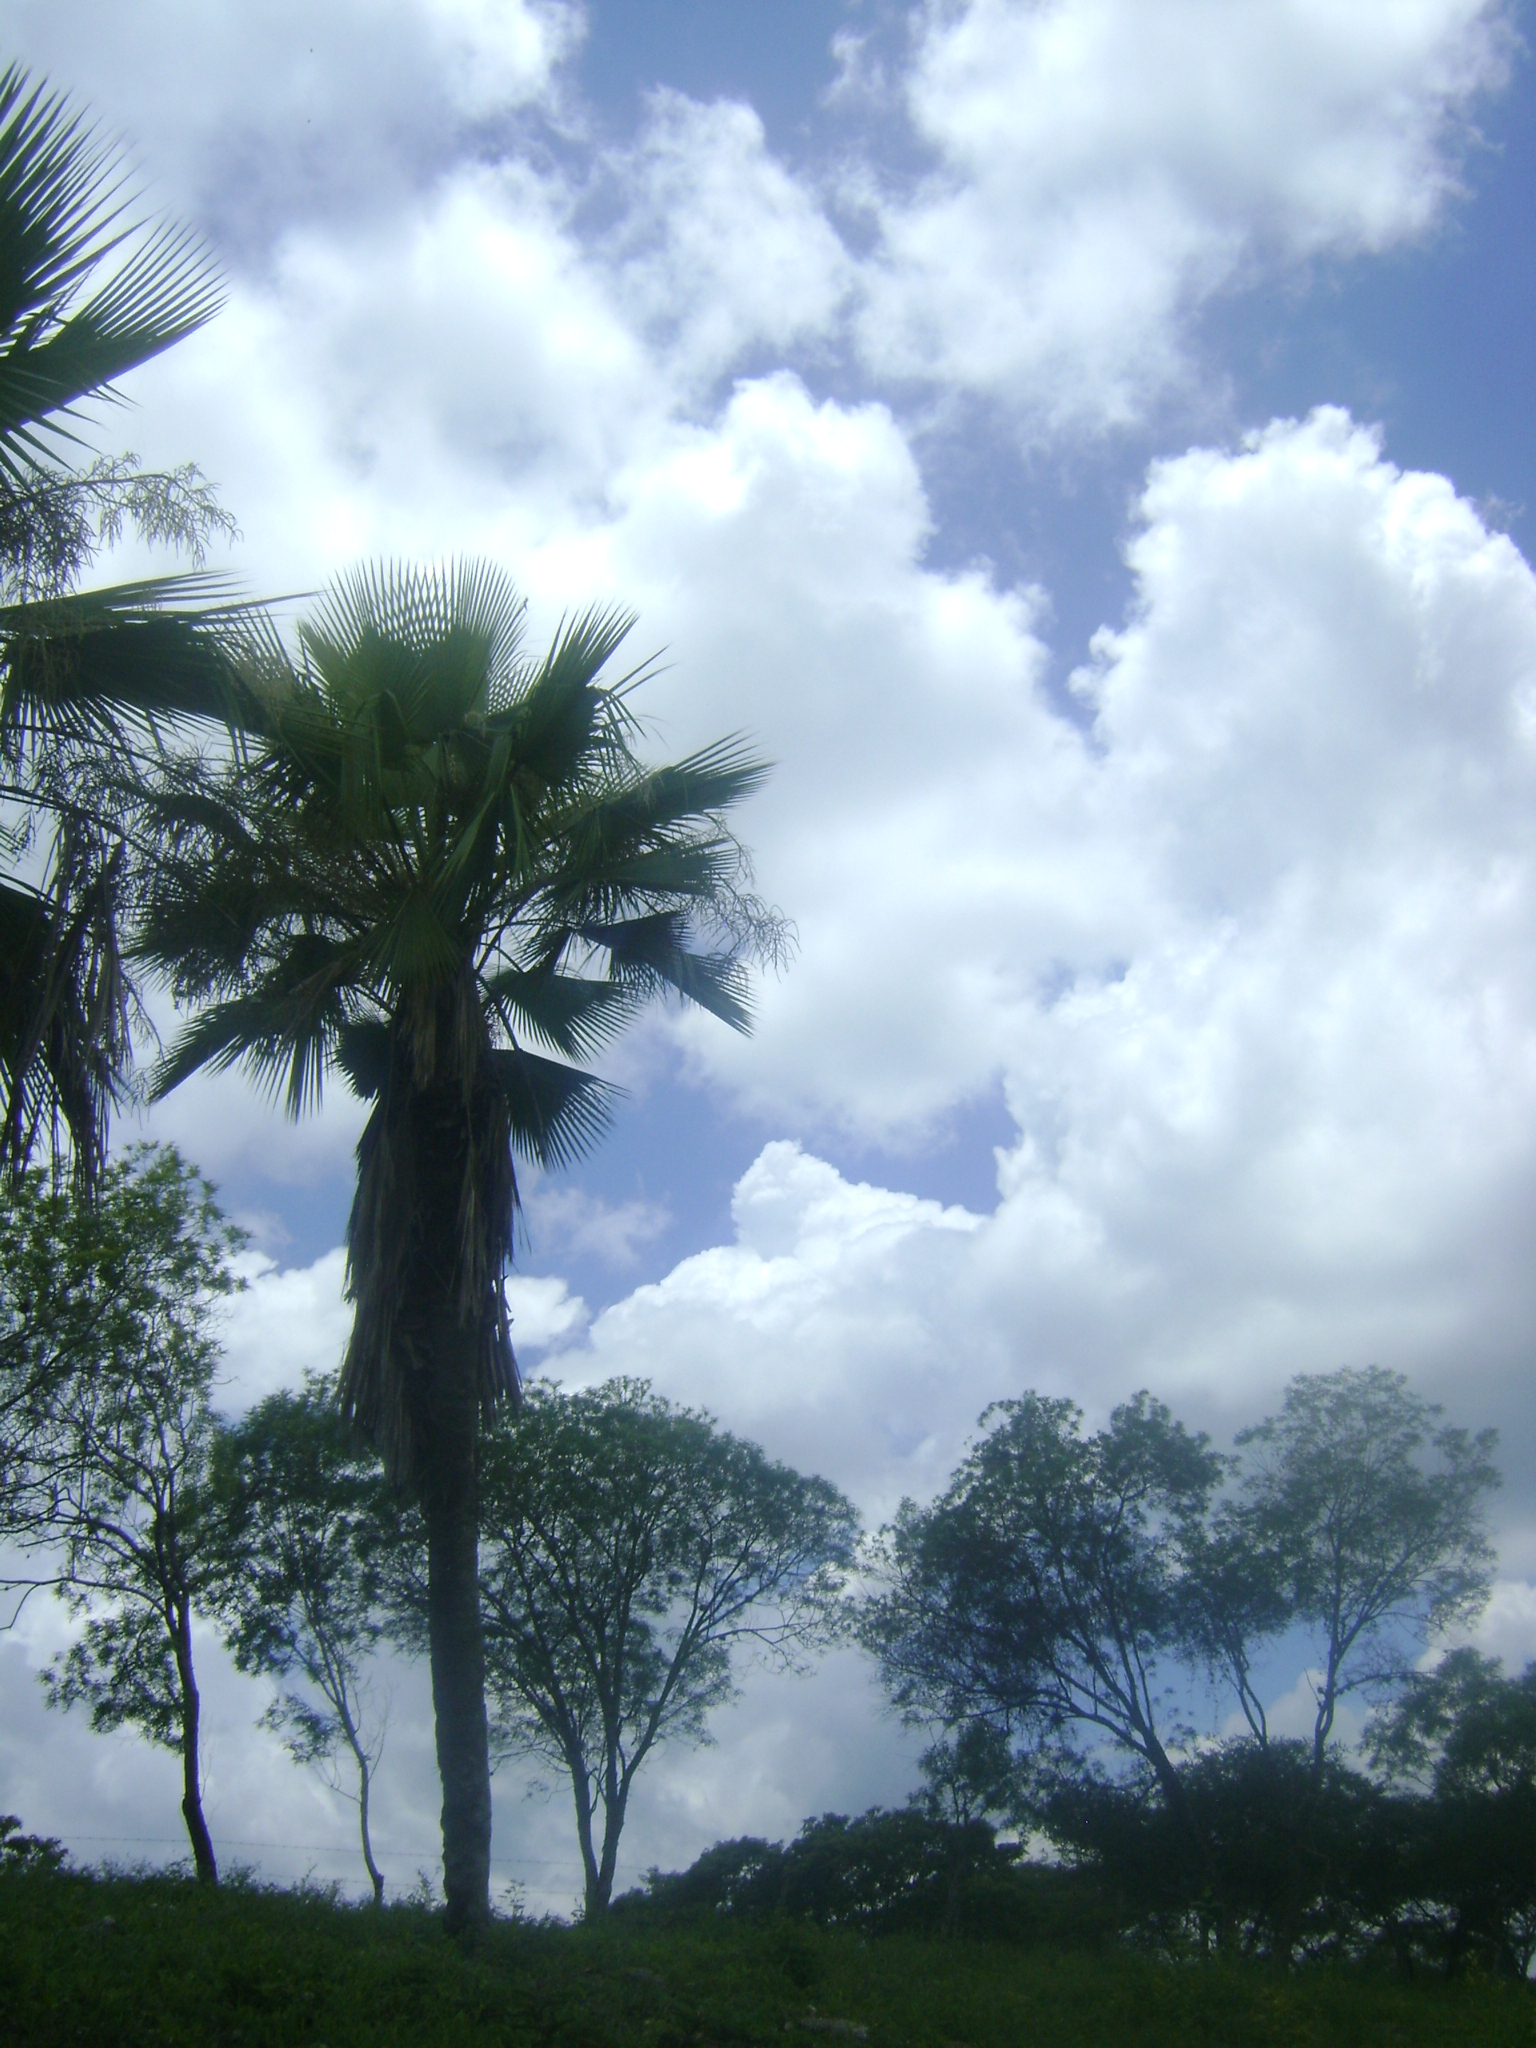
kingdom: Plantae
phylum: Tracheophyta
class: Liliopsida
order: Arecales
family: Arecaceae
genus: Brahea
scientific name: Brahea dulcis
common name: Apak palm
